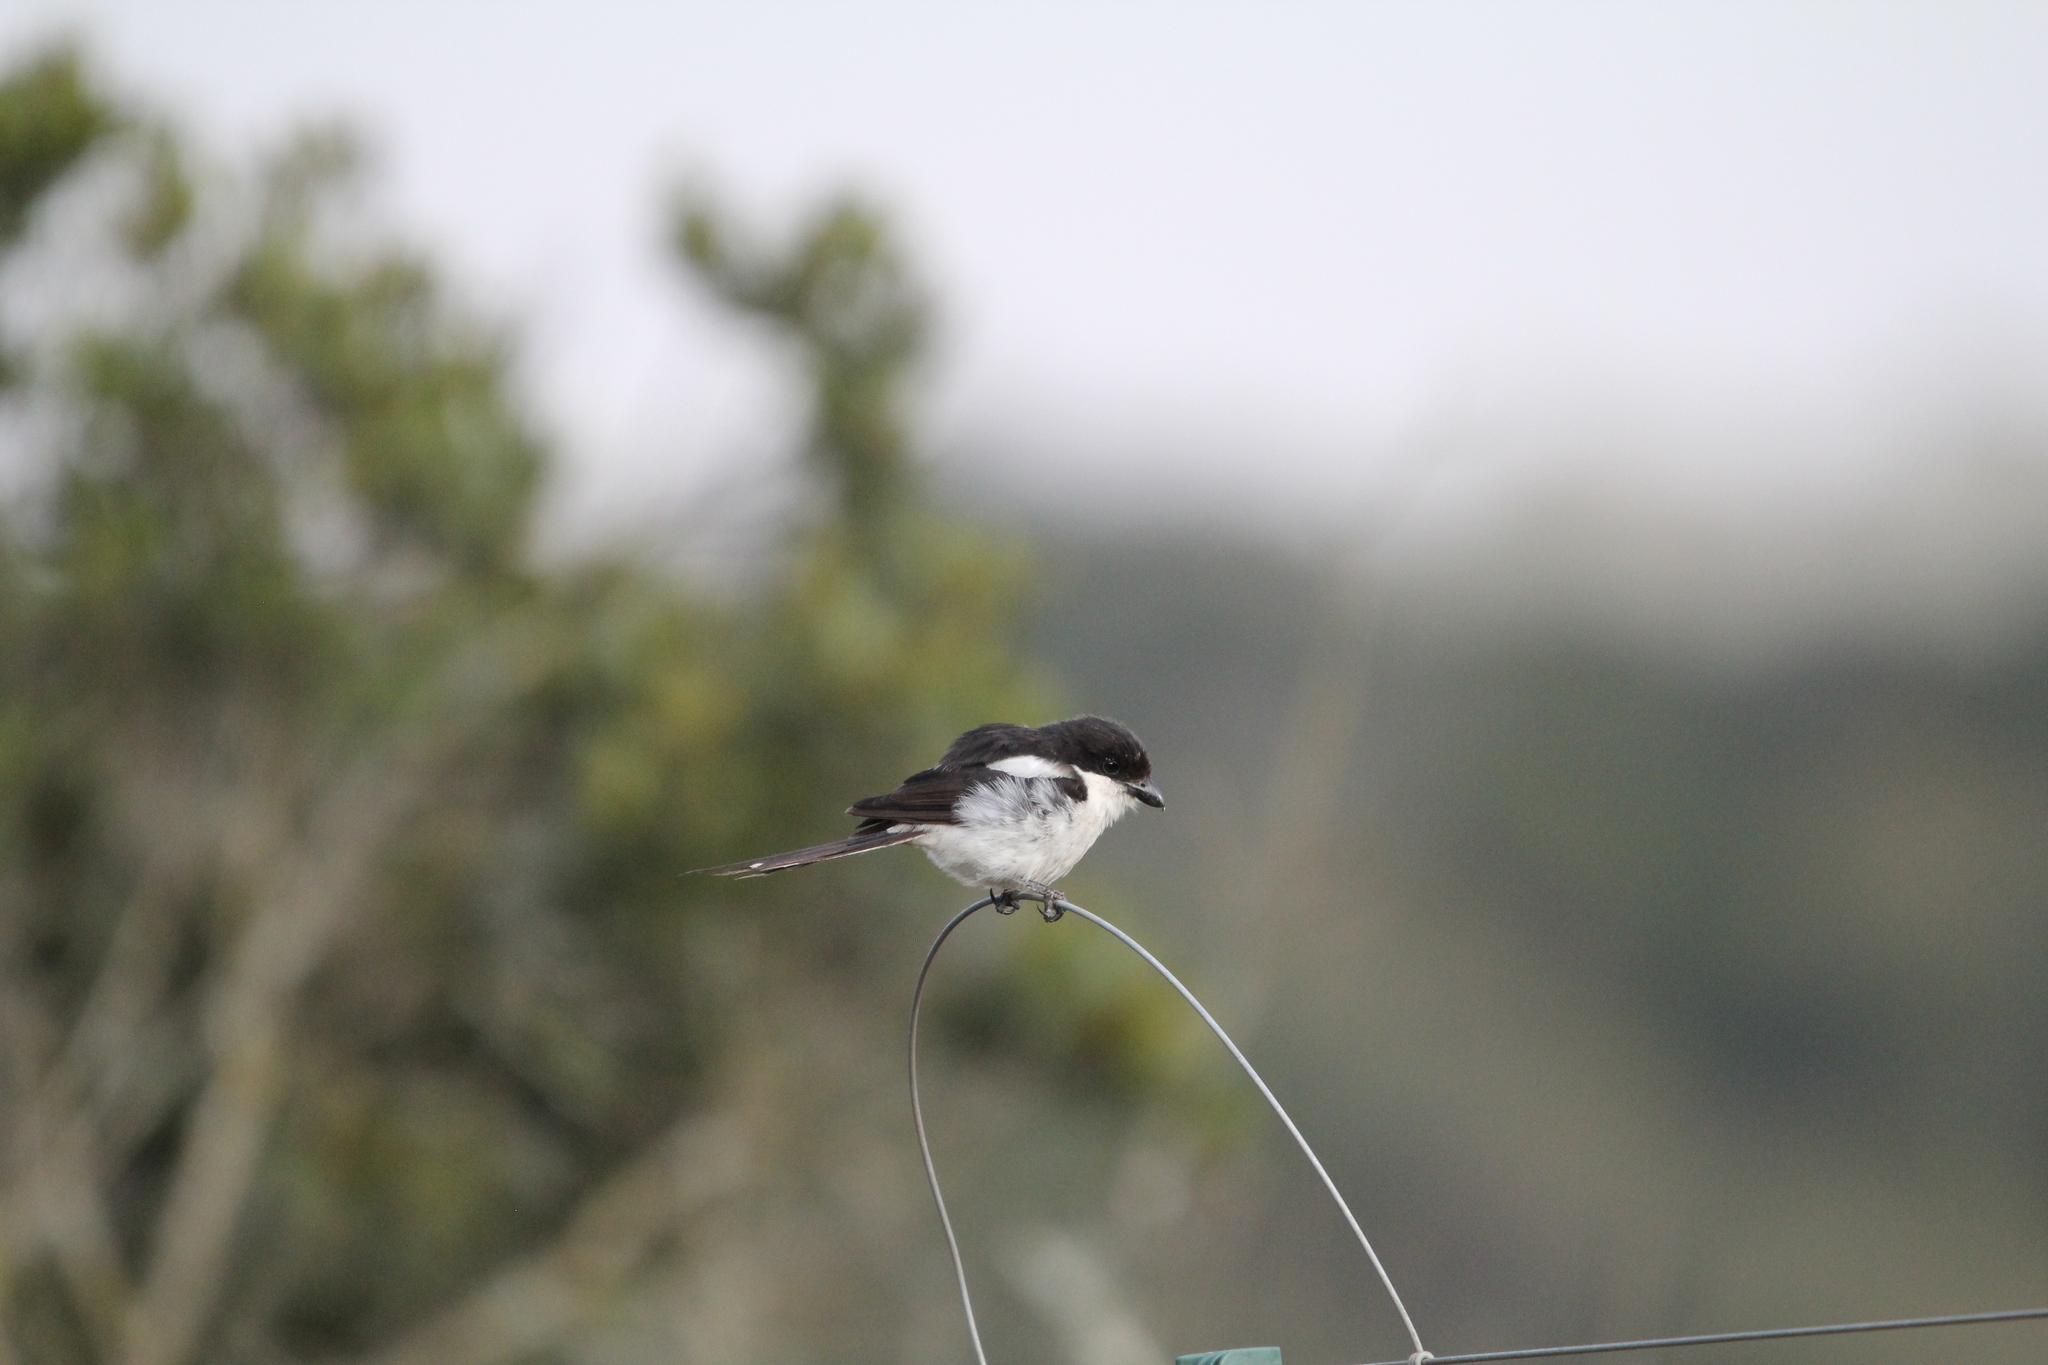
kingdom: Animalia
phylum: Chordata
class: Aves
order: Passeriformes
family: Laniidae
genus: Lanius
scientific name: Lanius humeralis
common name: Northern fiscal
